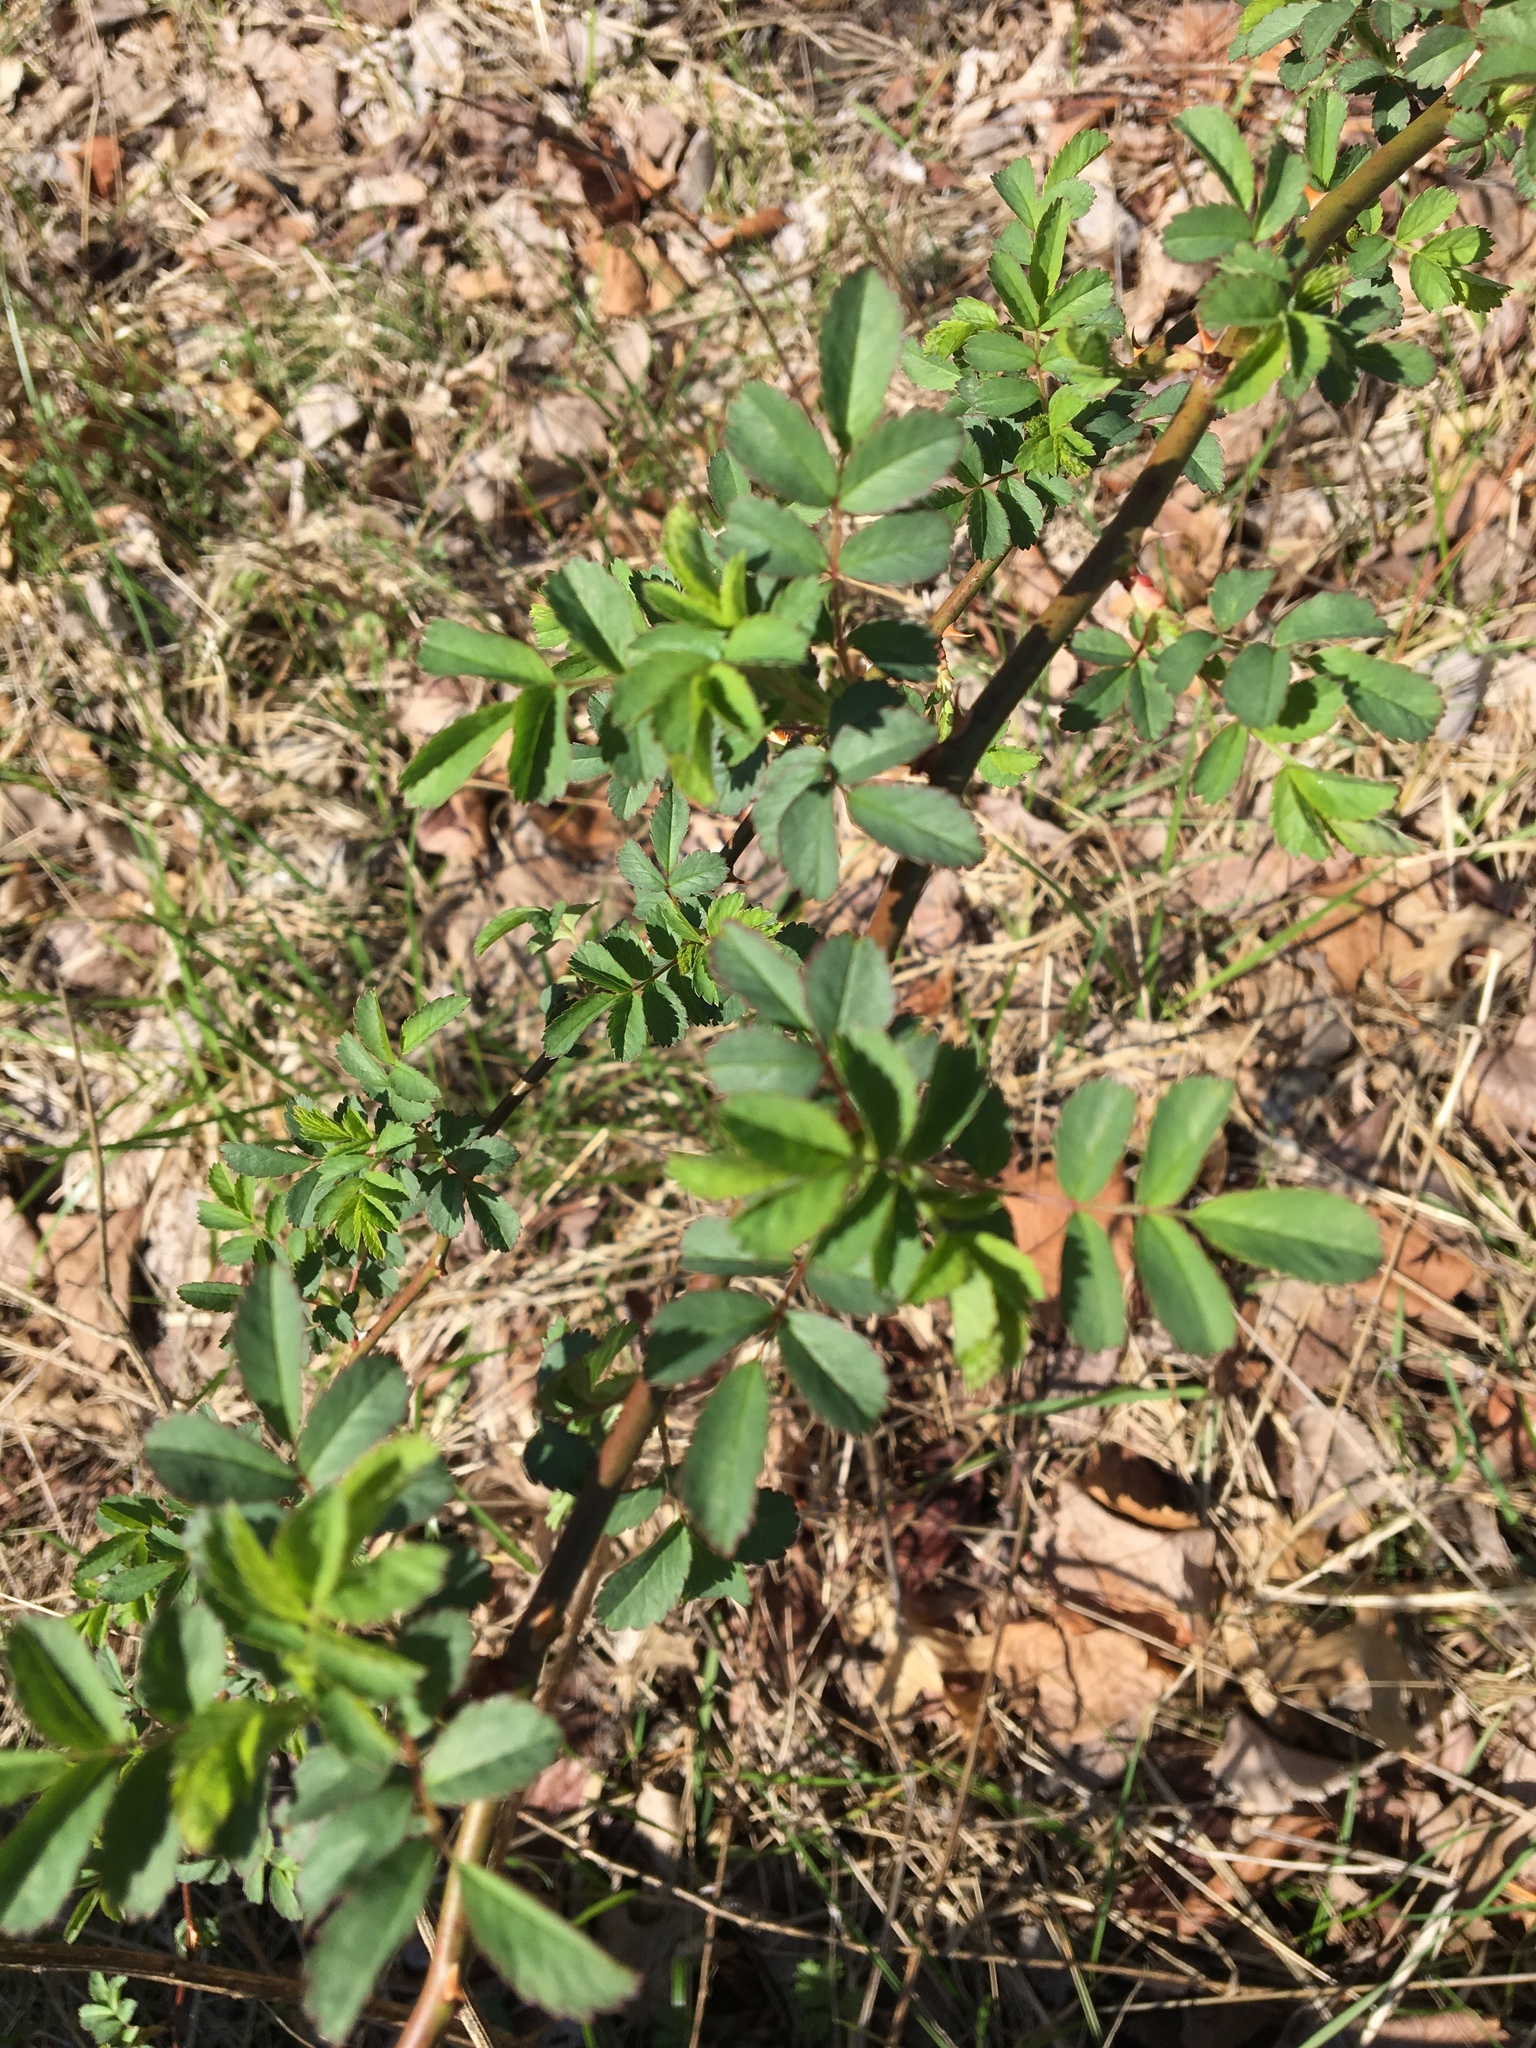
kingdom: Plantae
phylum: Tracheophyta
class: Magnoliopsida
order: Rosales
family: Rosaceae
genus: Rosa
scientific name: Rosa multiflora
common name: Multiflora rose
